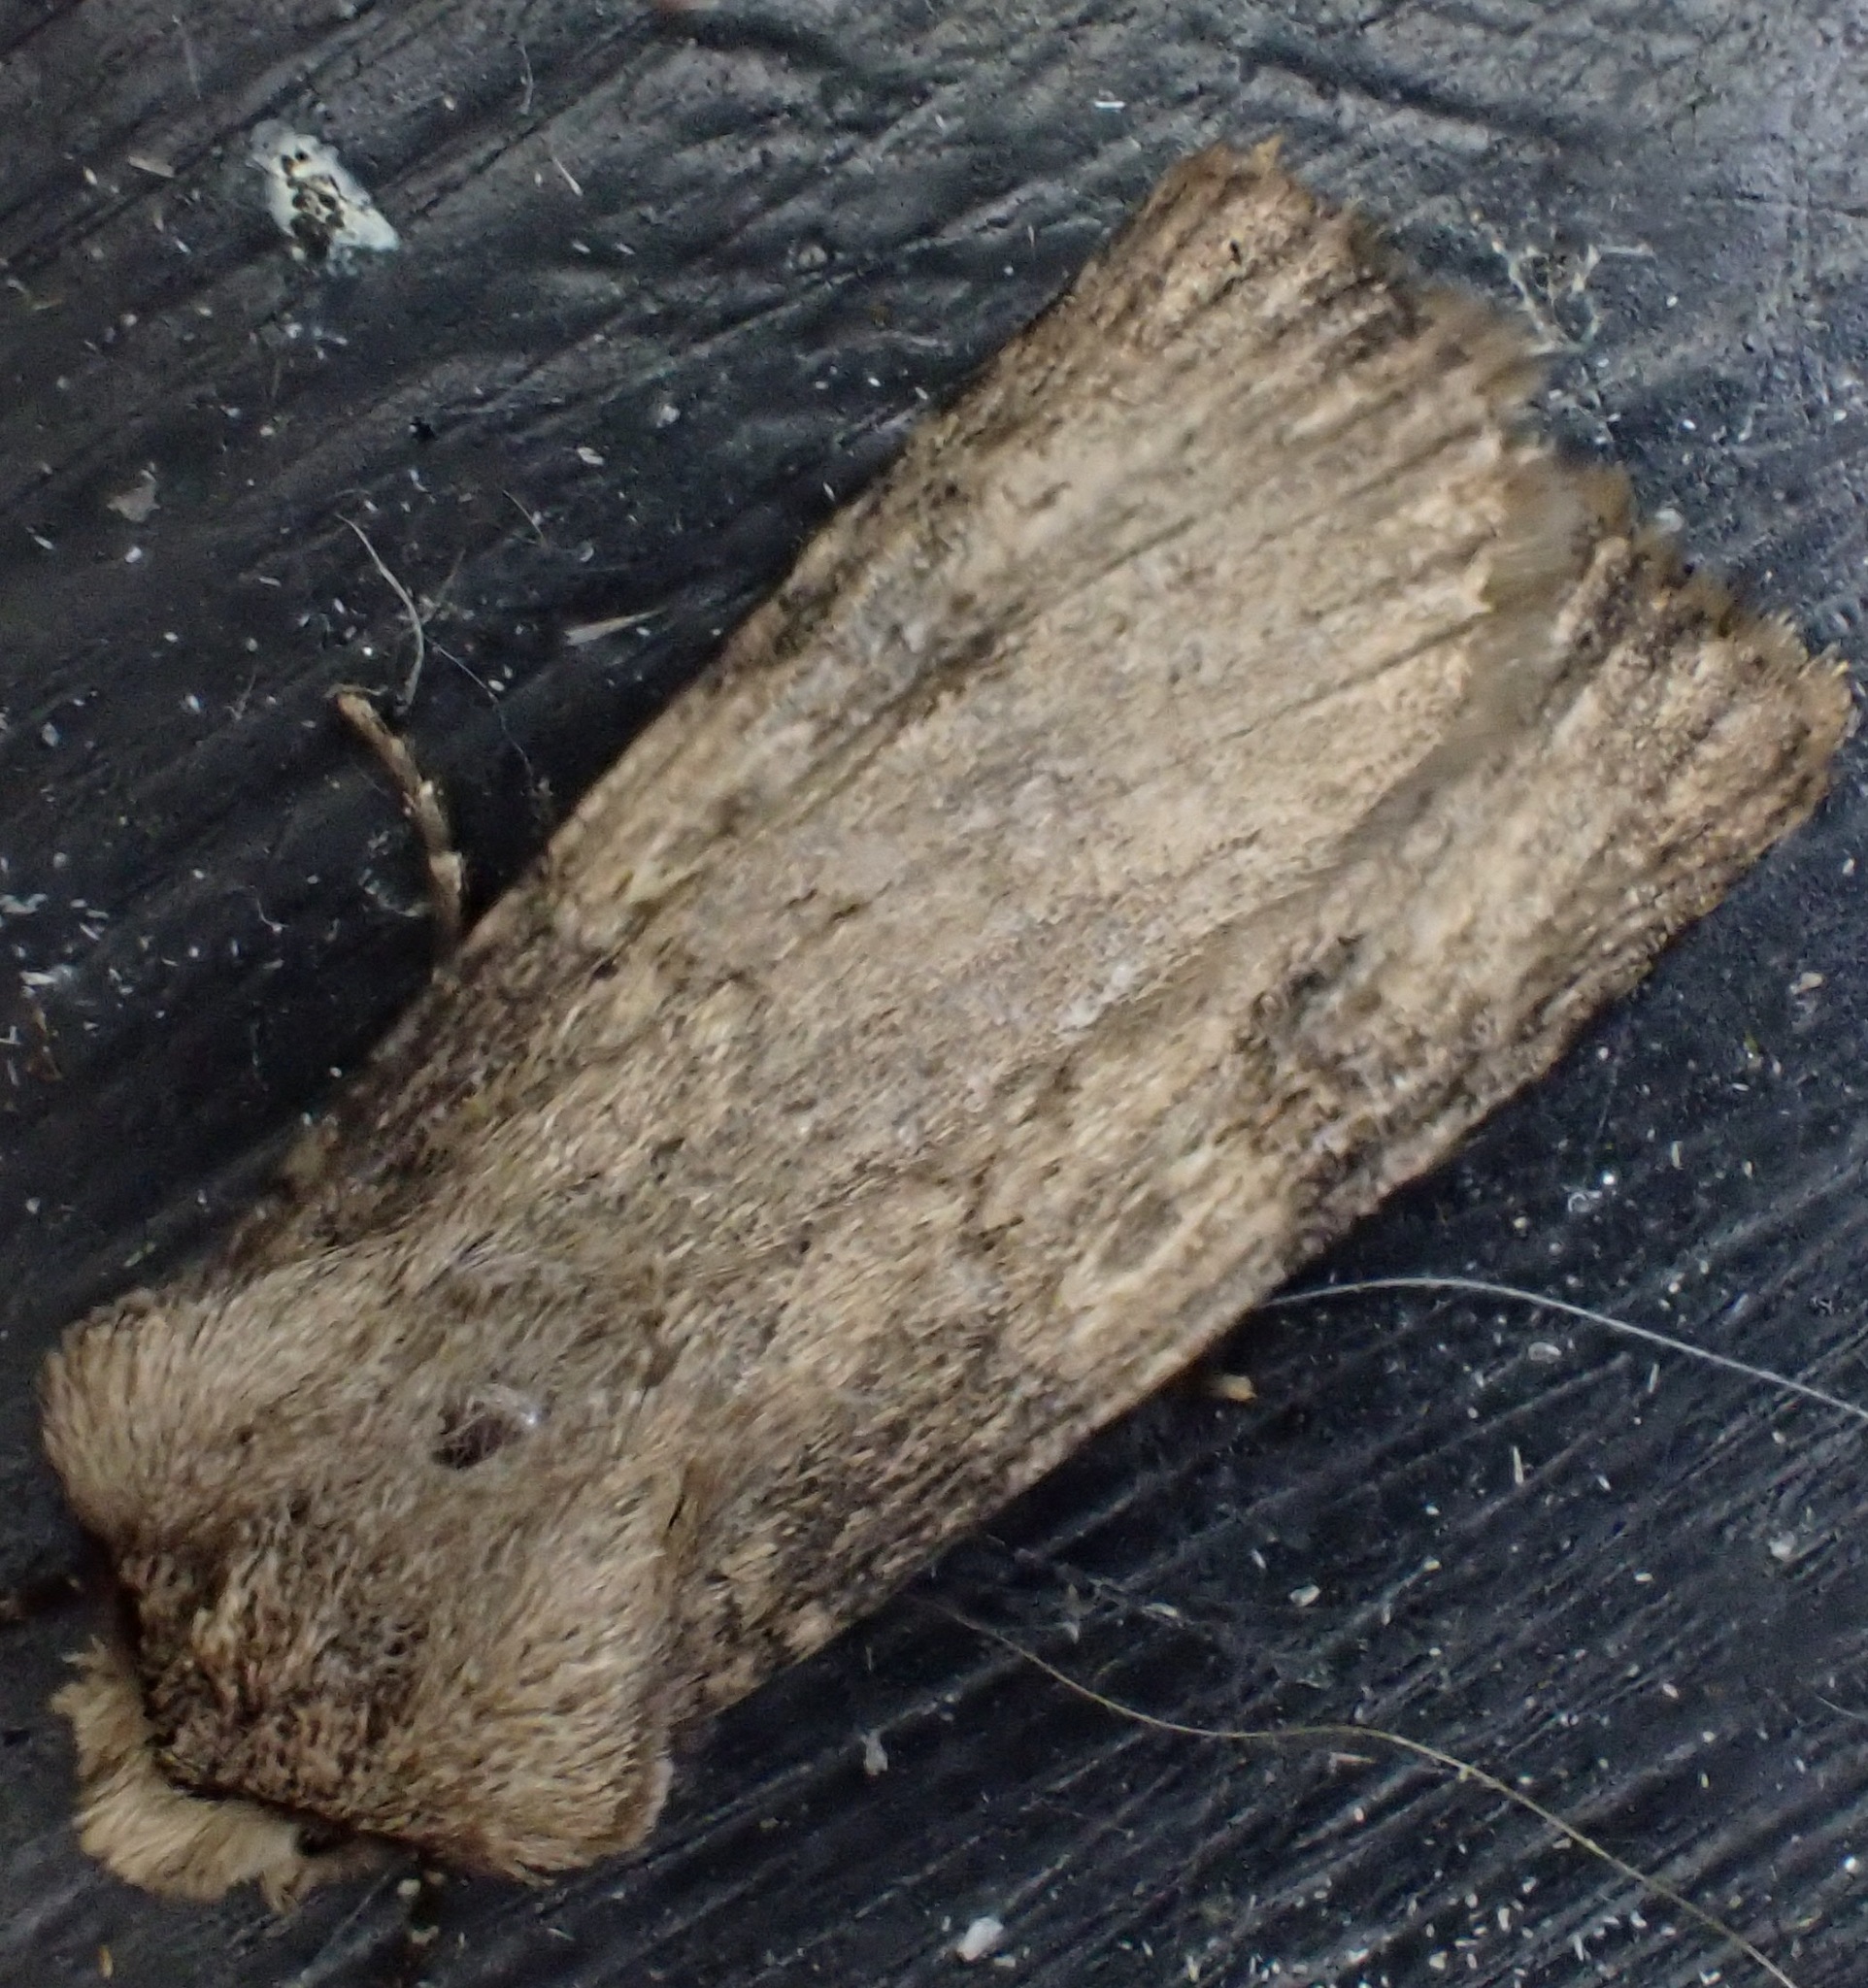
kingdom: Animalia
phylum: Arthropoda
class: Insecta
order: Lepidoptera
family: Noctuidae
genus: Agrotis
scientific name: Agrotis puta
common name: Shuttle-shaped dart
